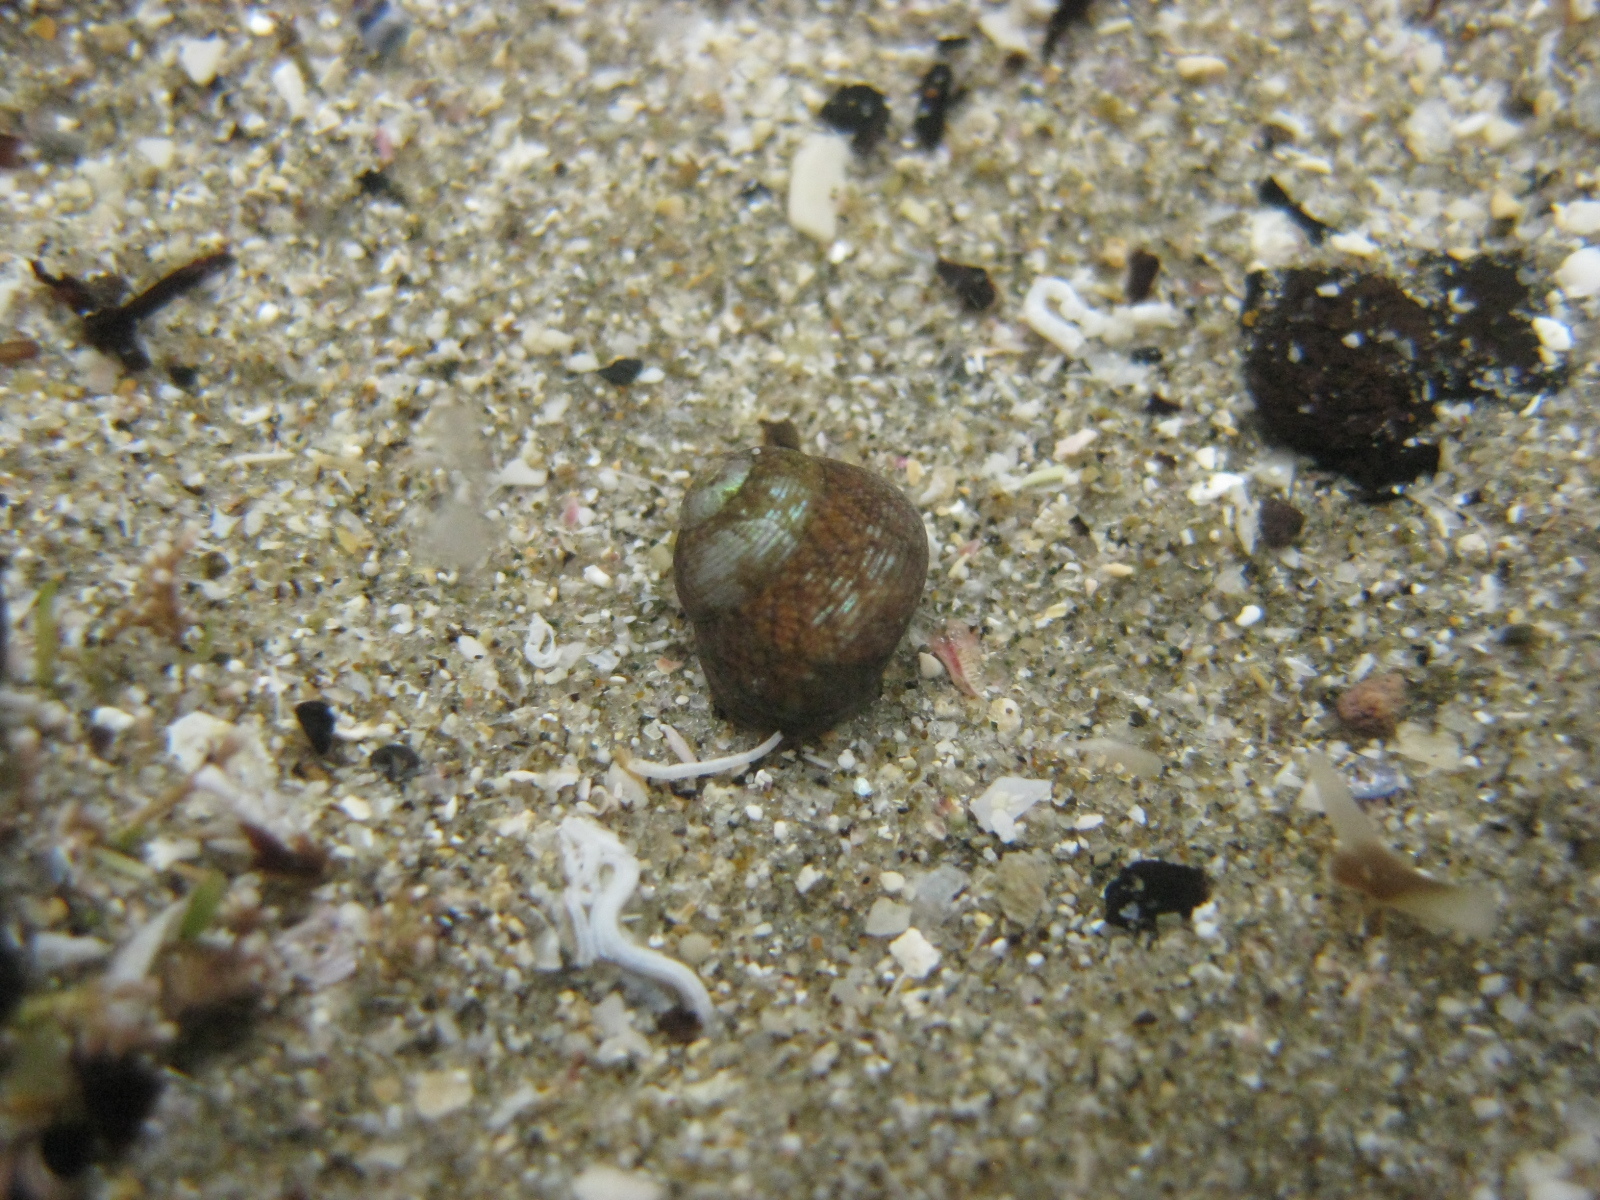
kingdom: Animalia
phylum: Mollusca
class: Gastropoda
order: Trochida
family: Trochidae
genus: Micrelenchus
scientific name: Micrelenchus tessellatus
